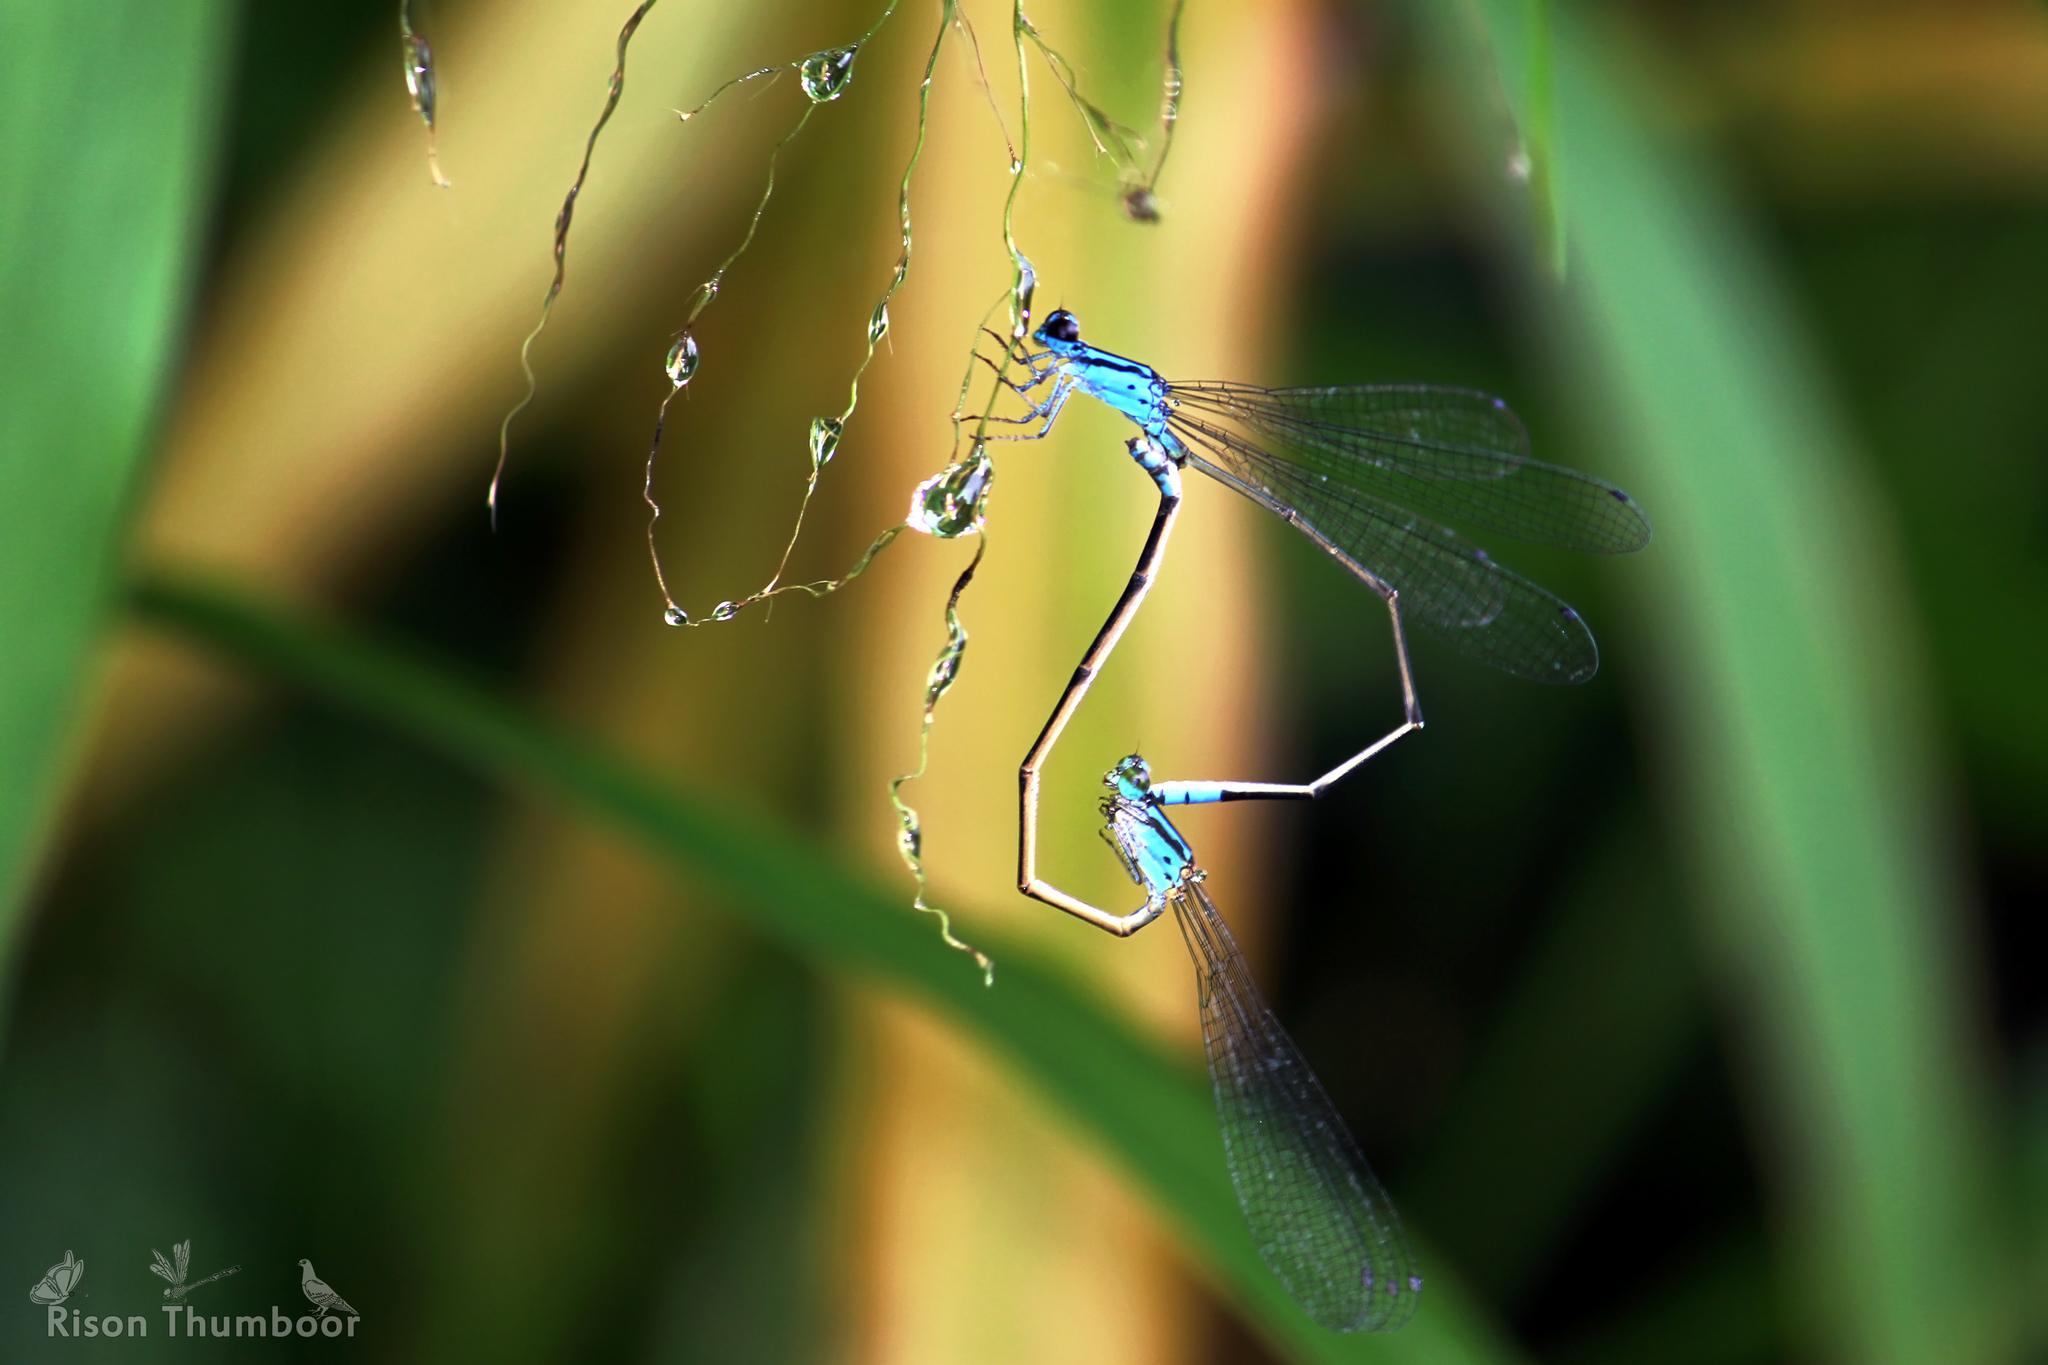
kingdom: Animalia
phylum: Arthropoda
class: Insecta
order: Odonata
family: Coenagrionidae
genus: Archibasis
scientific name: Archibasis oscillans
